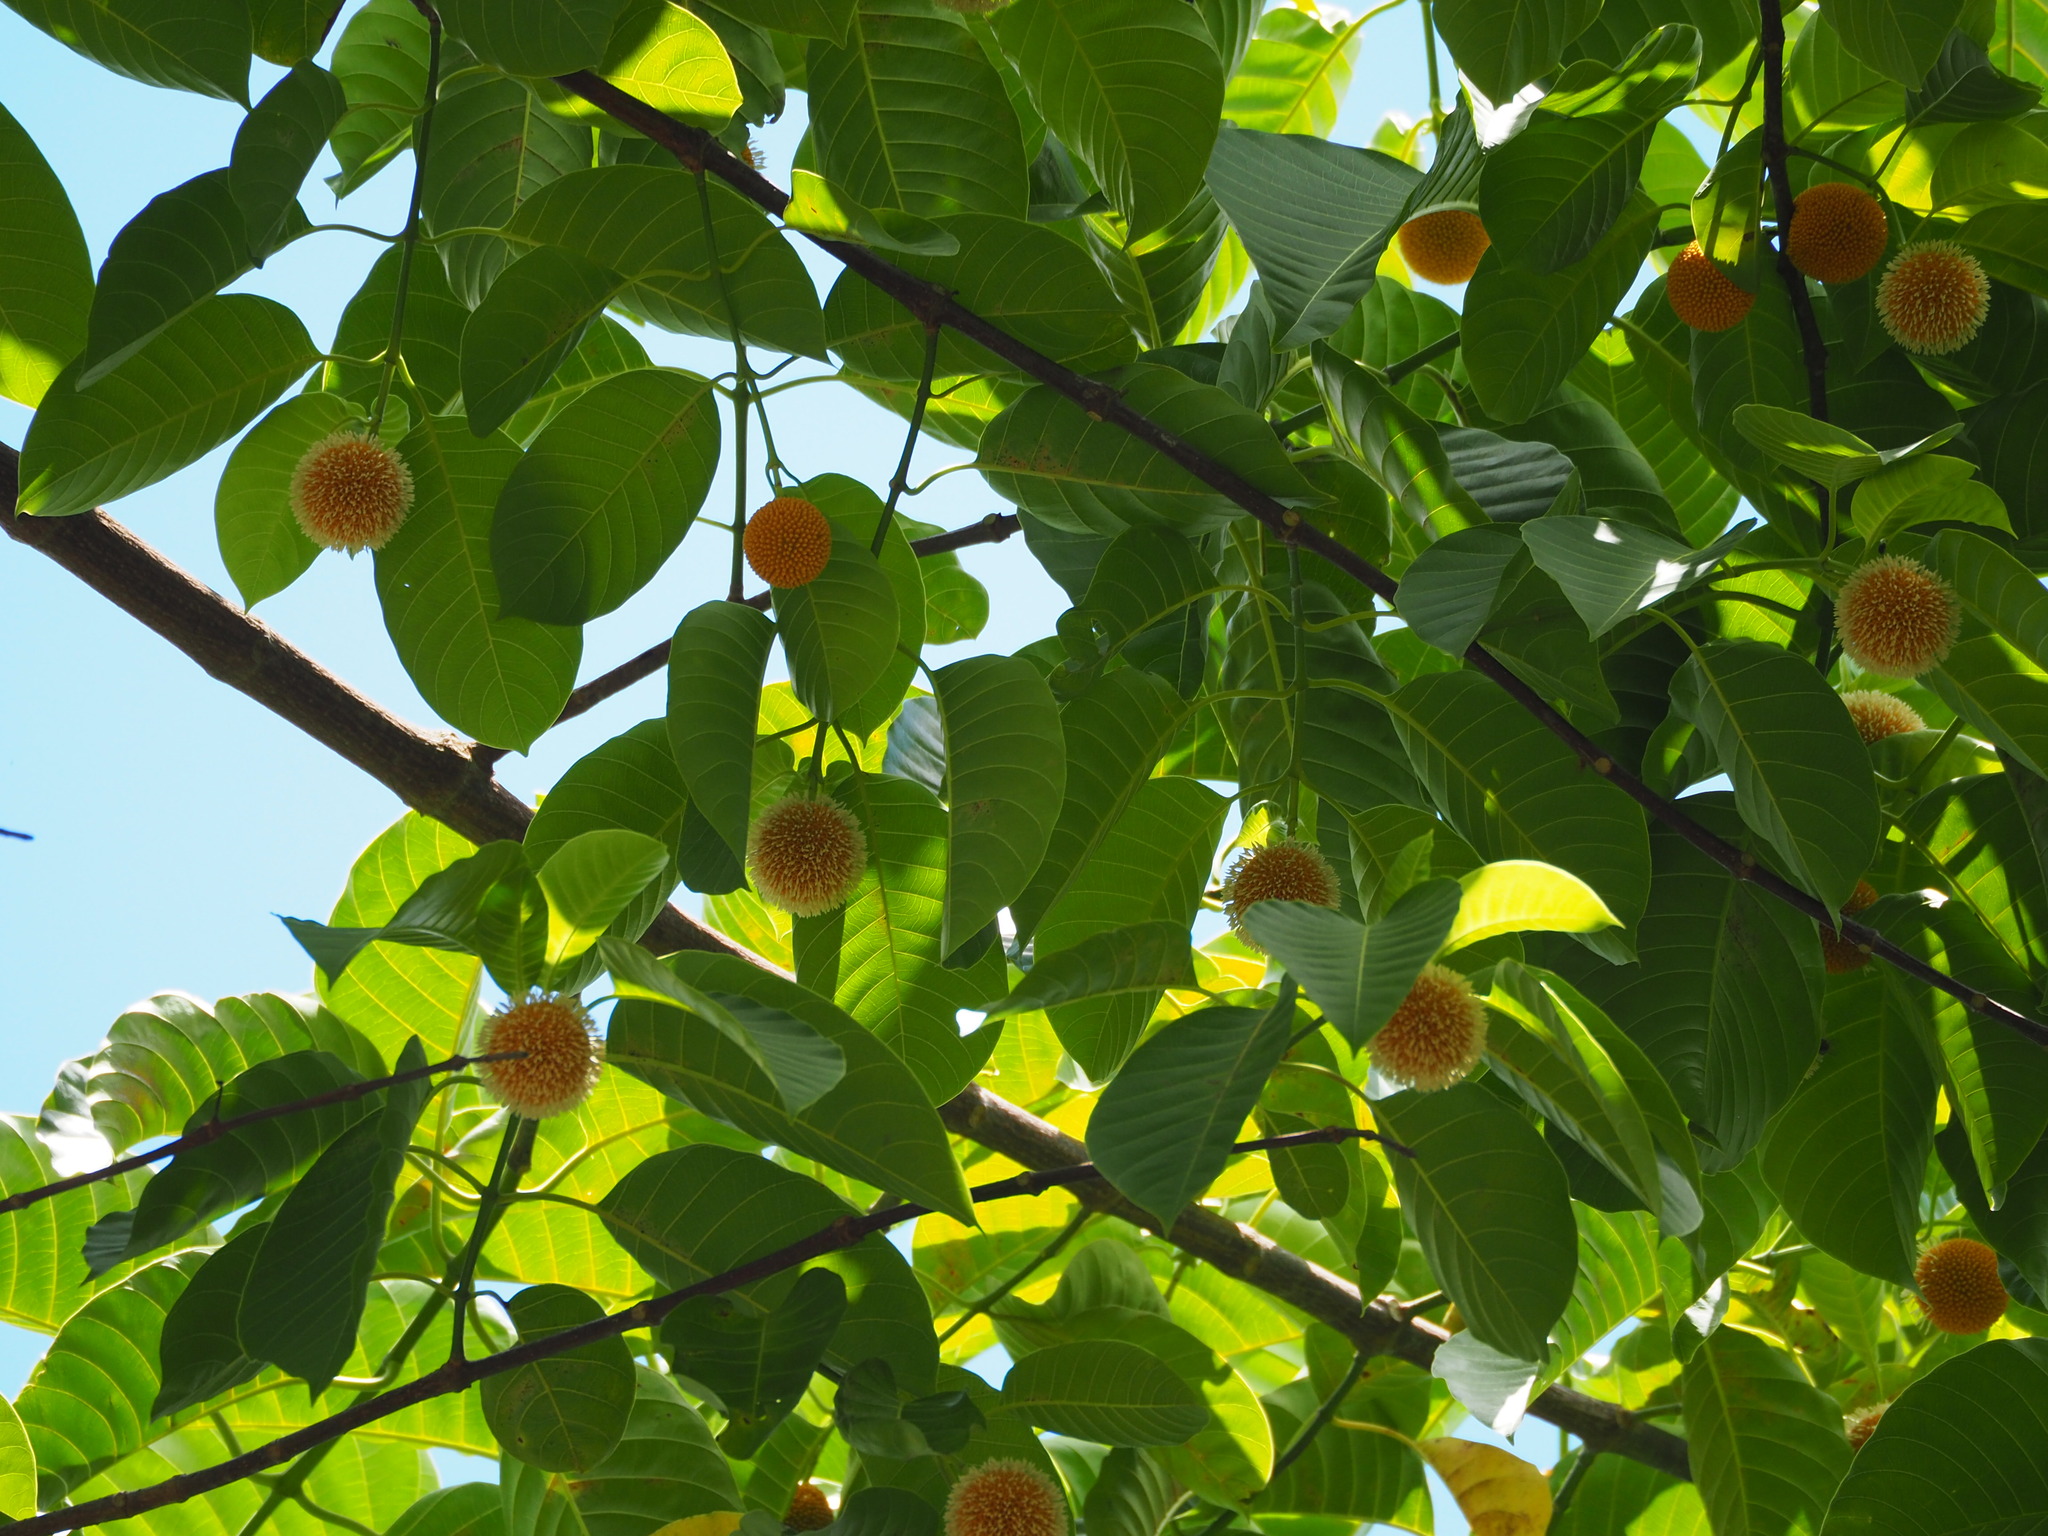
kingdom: Plantae
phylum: Tracheophyta
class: Magnoliopsida
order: Gentianales
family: Rubiaceae
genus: Neolamarckia
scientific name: Neolamarckia cadamba
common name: Leichhardt-pine
